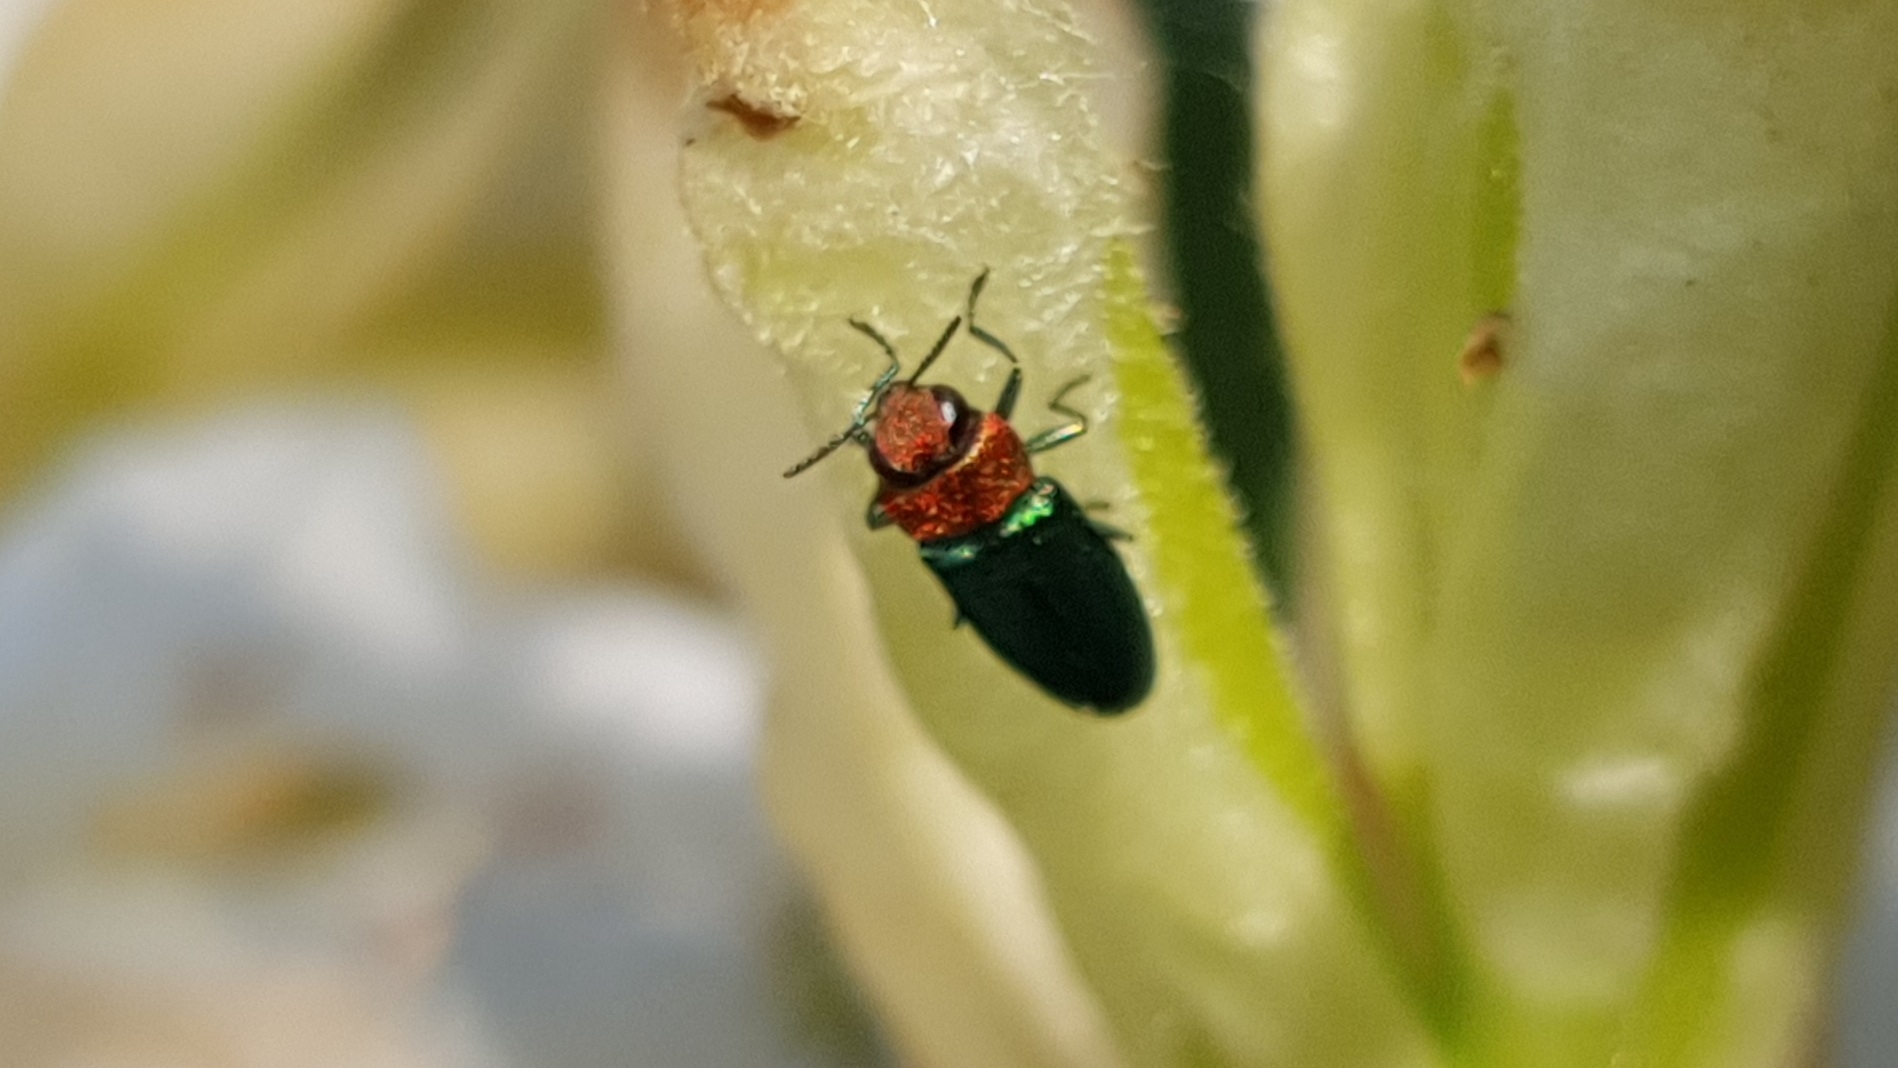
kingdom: Animalia
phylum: Arthropoda
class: Insecta
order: Coleoptera
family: Buprestidae
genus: Anthaxia
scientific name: Anthaxia nitidula
